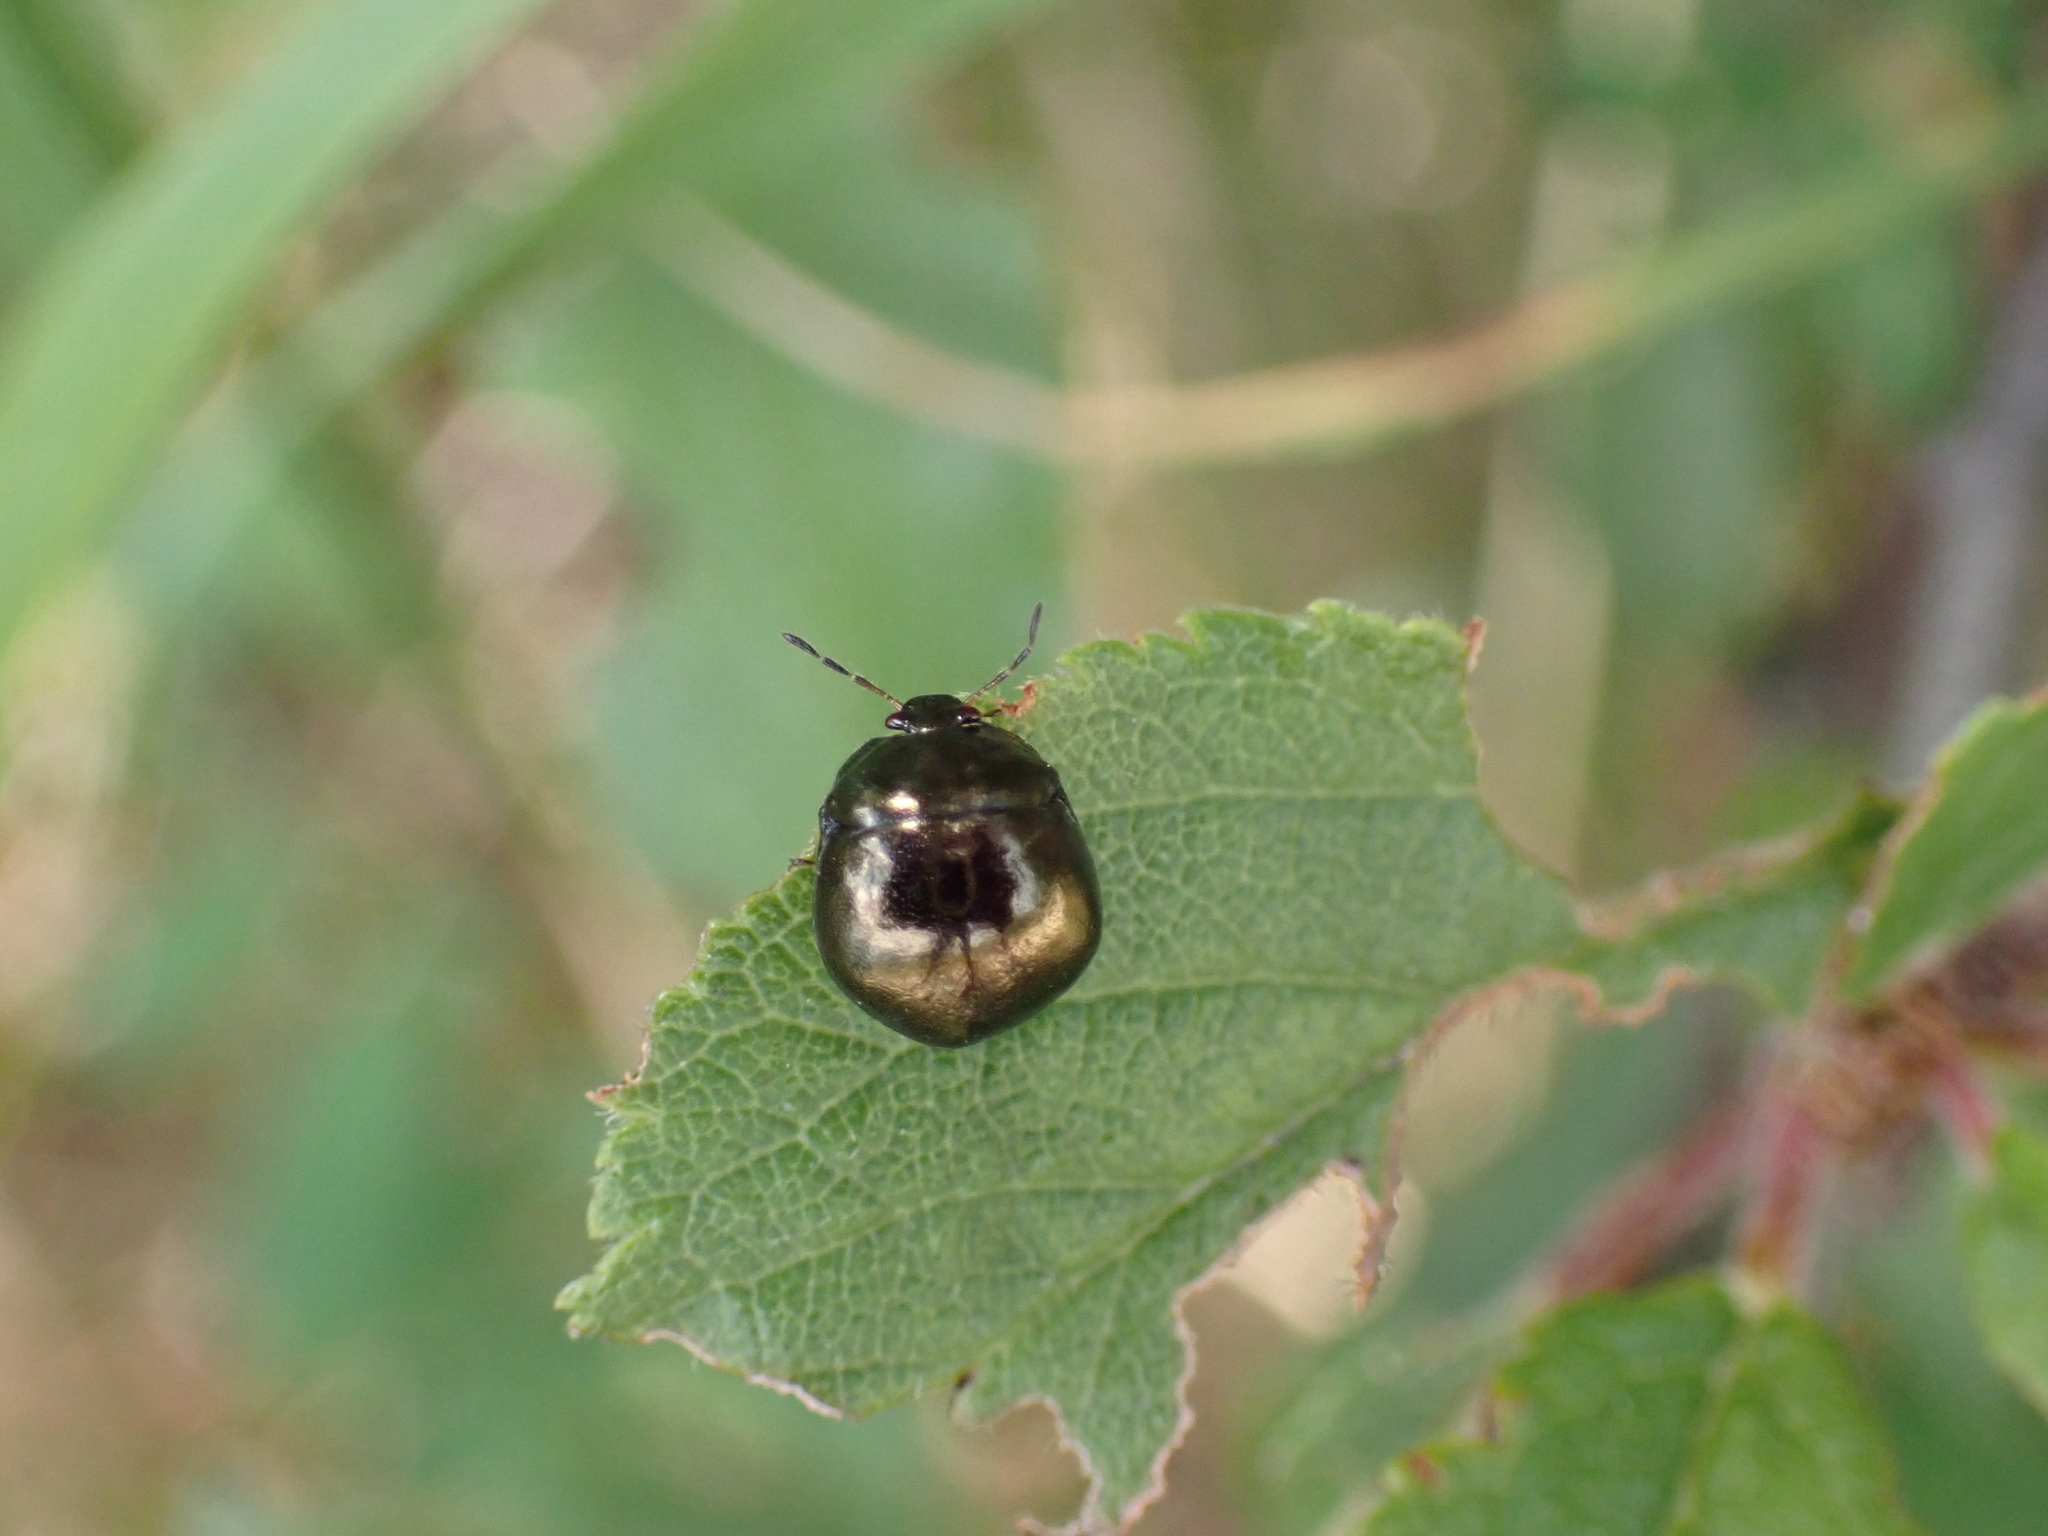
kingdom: Animalia
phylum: Arthropoda
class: Insecta
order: Hemiptera
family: Plataspidae
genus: Coptosoma
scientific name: Coptosoma scutellatum
